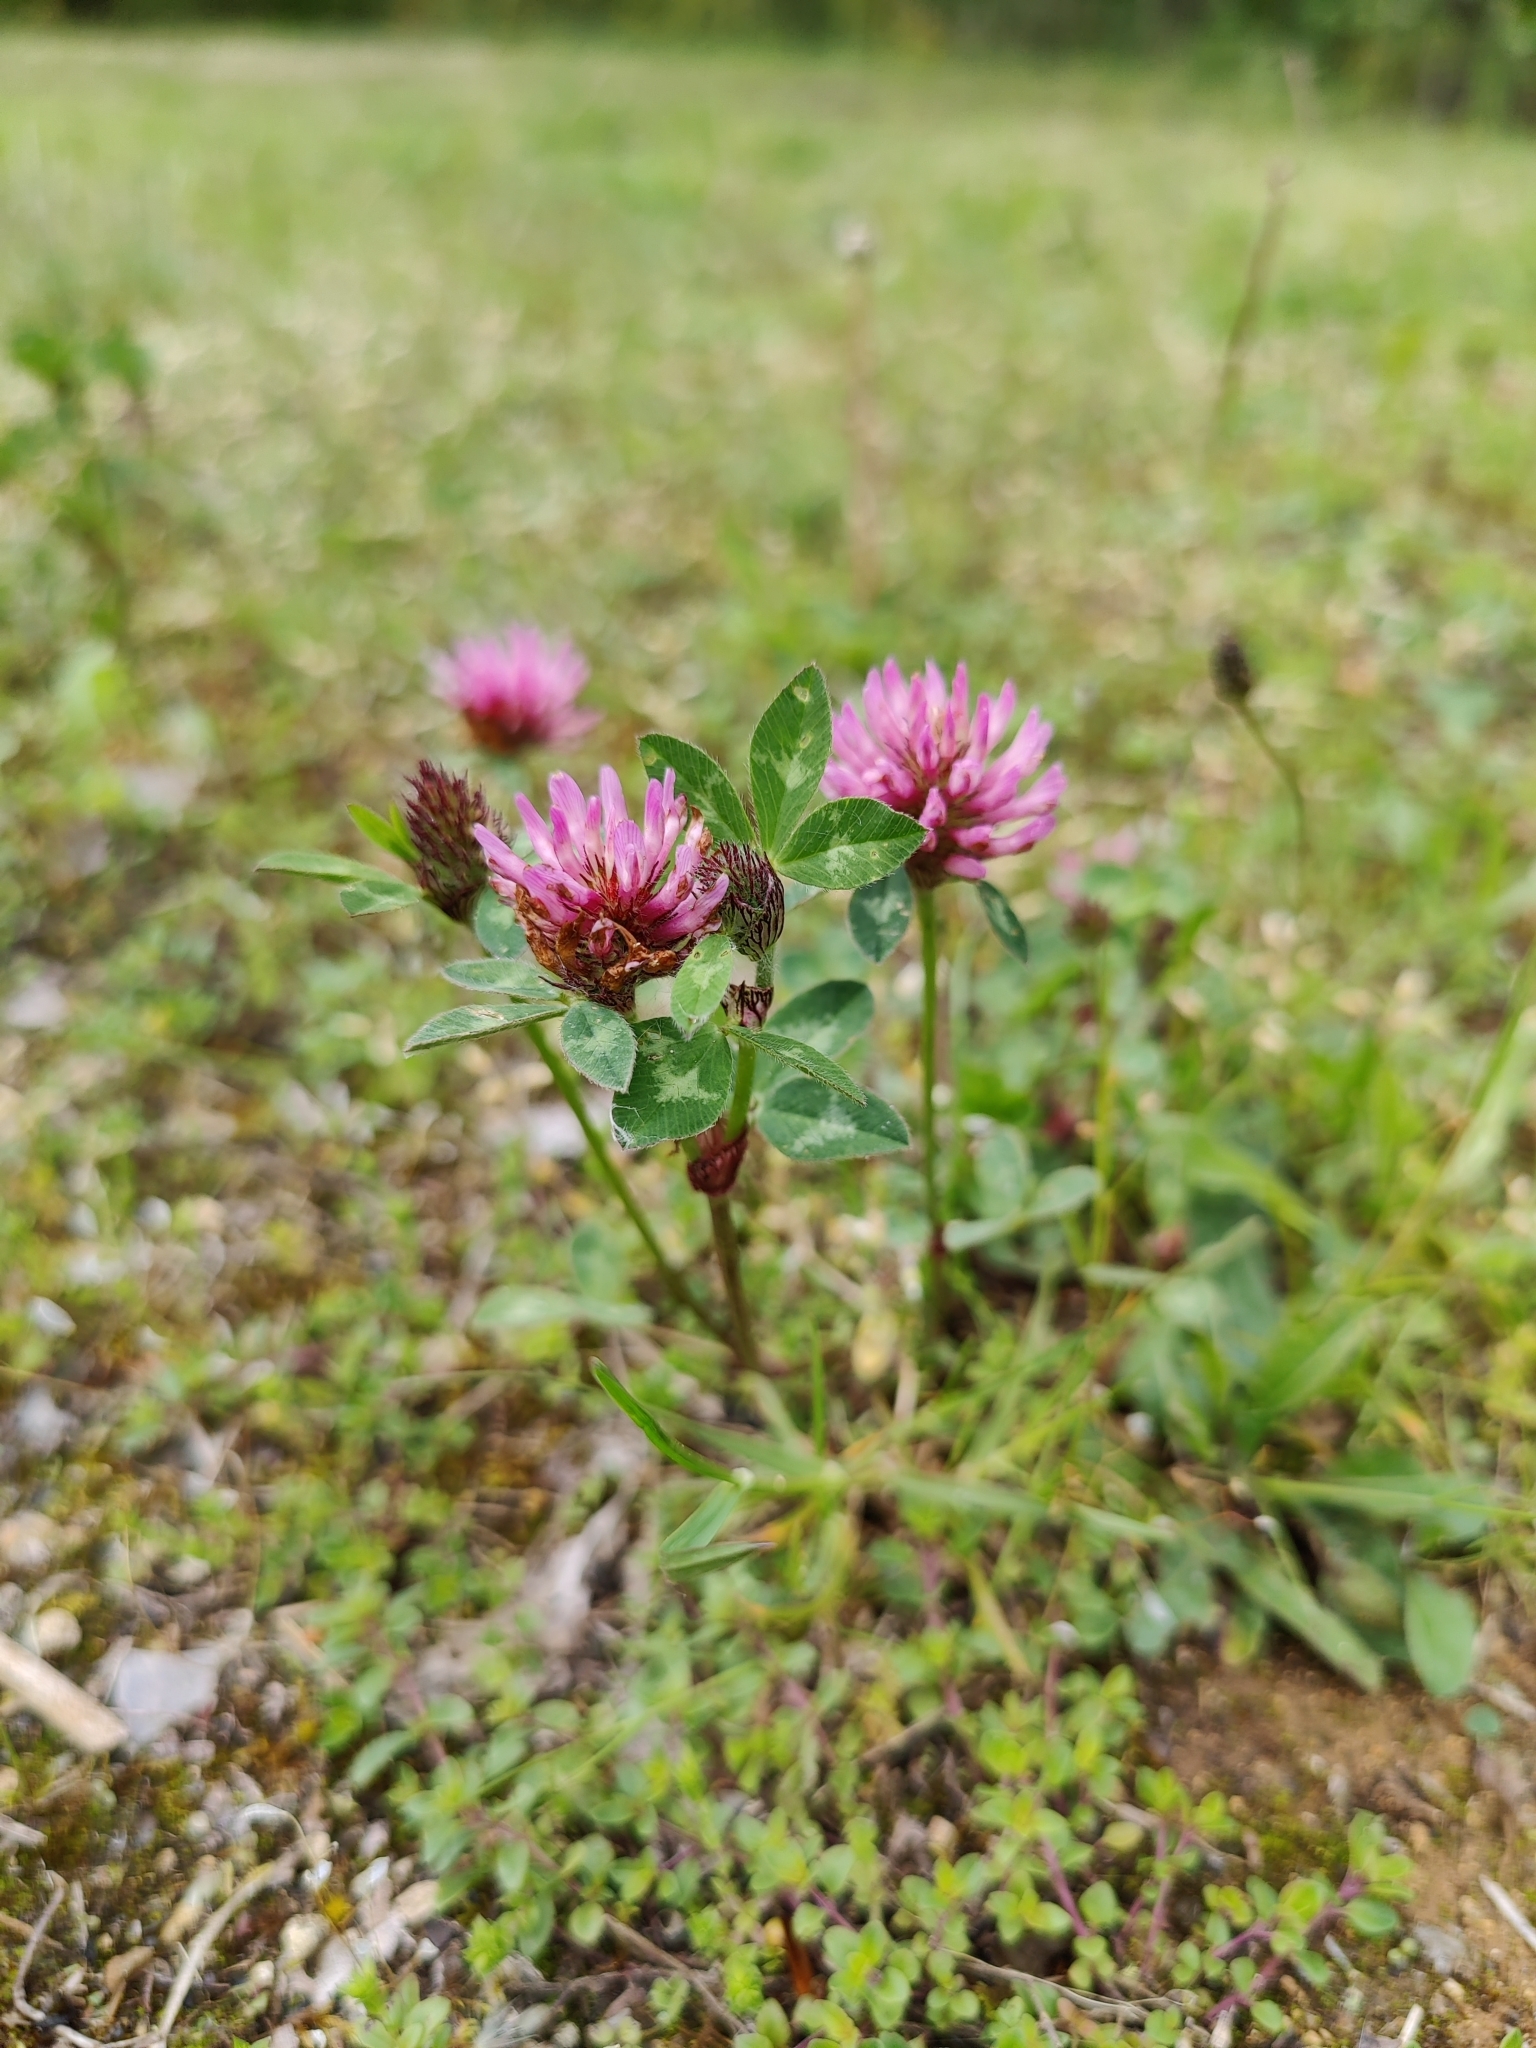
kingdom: Plantae
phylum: Tracheophyta
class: Magnoliopsida
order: Fabales
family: Fabaceae
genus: Trifolium
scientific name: Trifolium pratense
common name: Red clover
